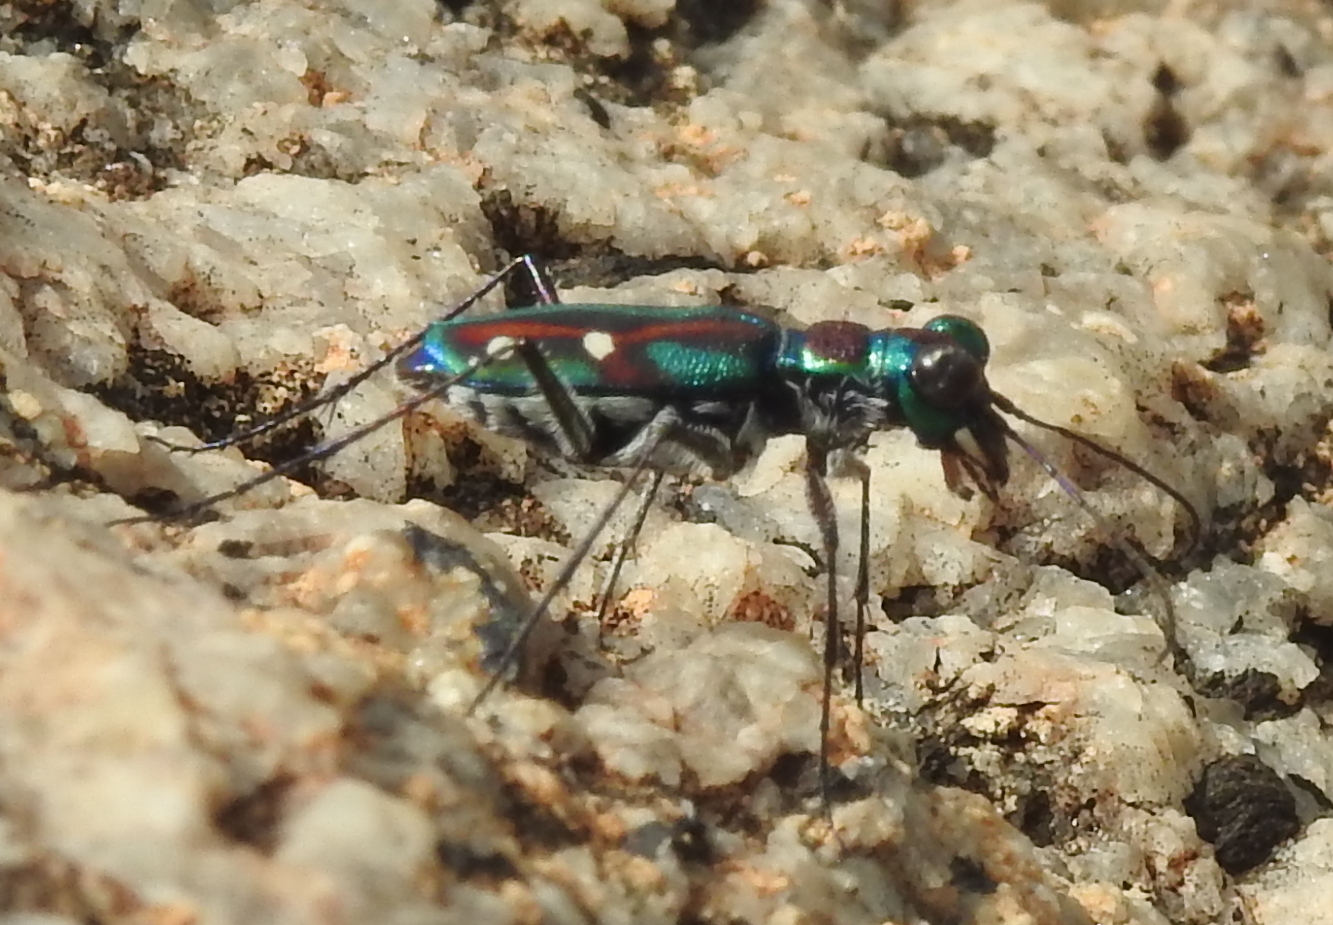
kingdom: Animalia
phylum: Arthropoda
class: Insecta
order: Coleoptera
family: Carabidae
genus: Jansenia
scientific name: Jansenia rugosiceps
